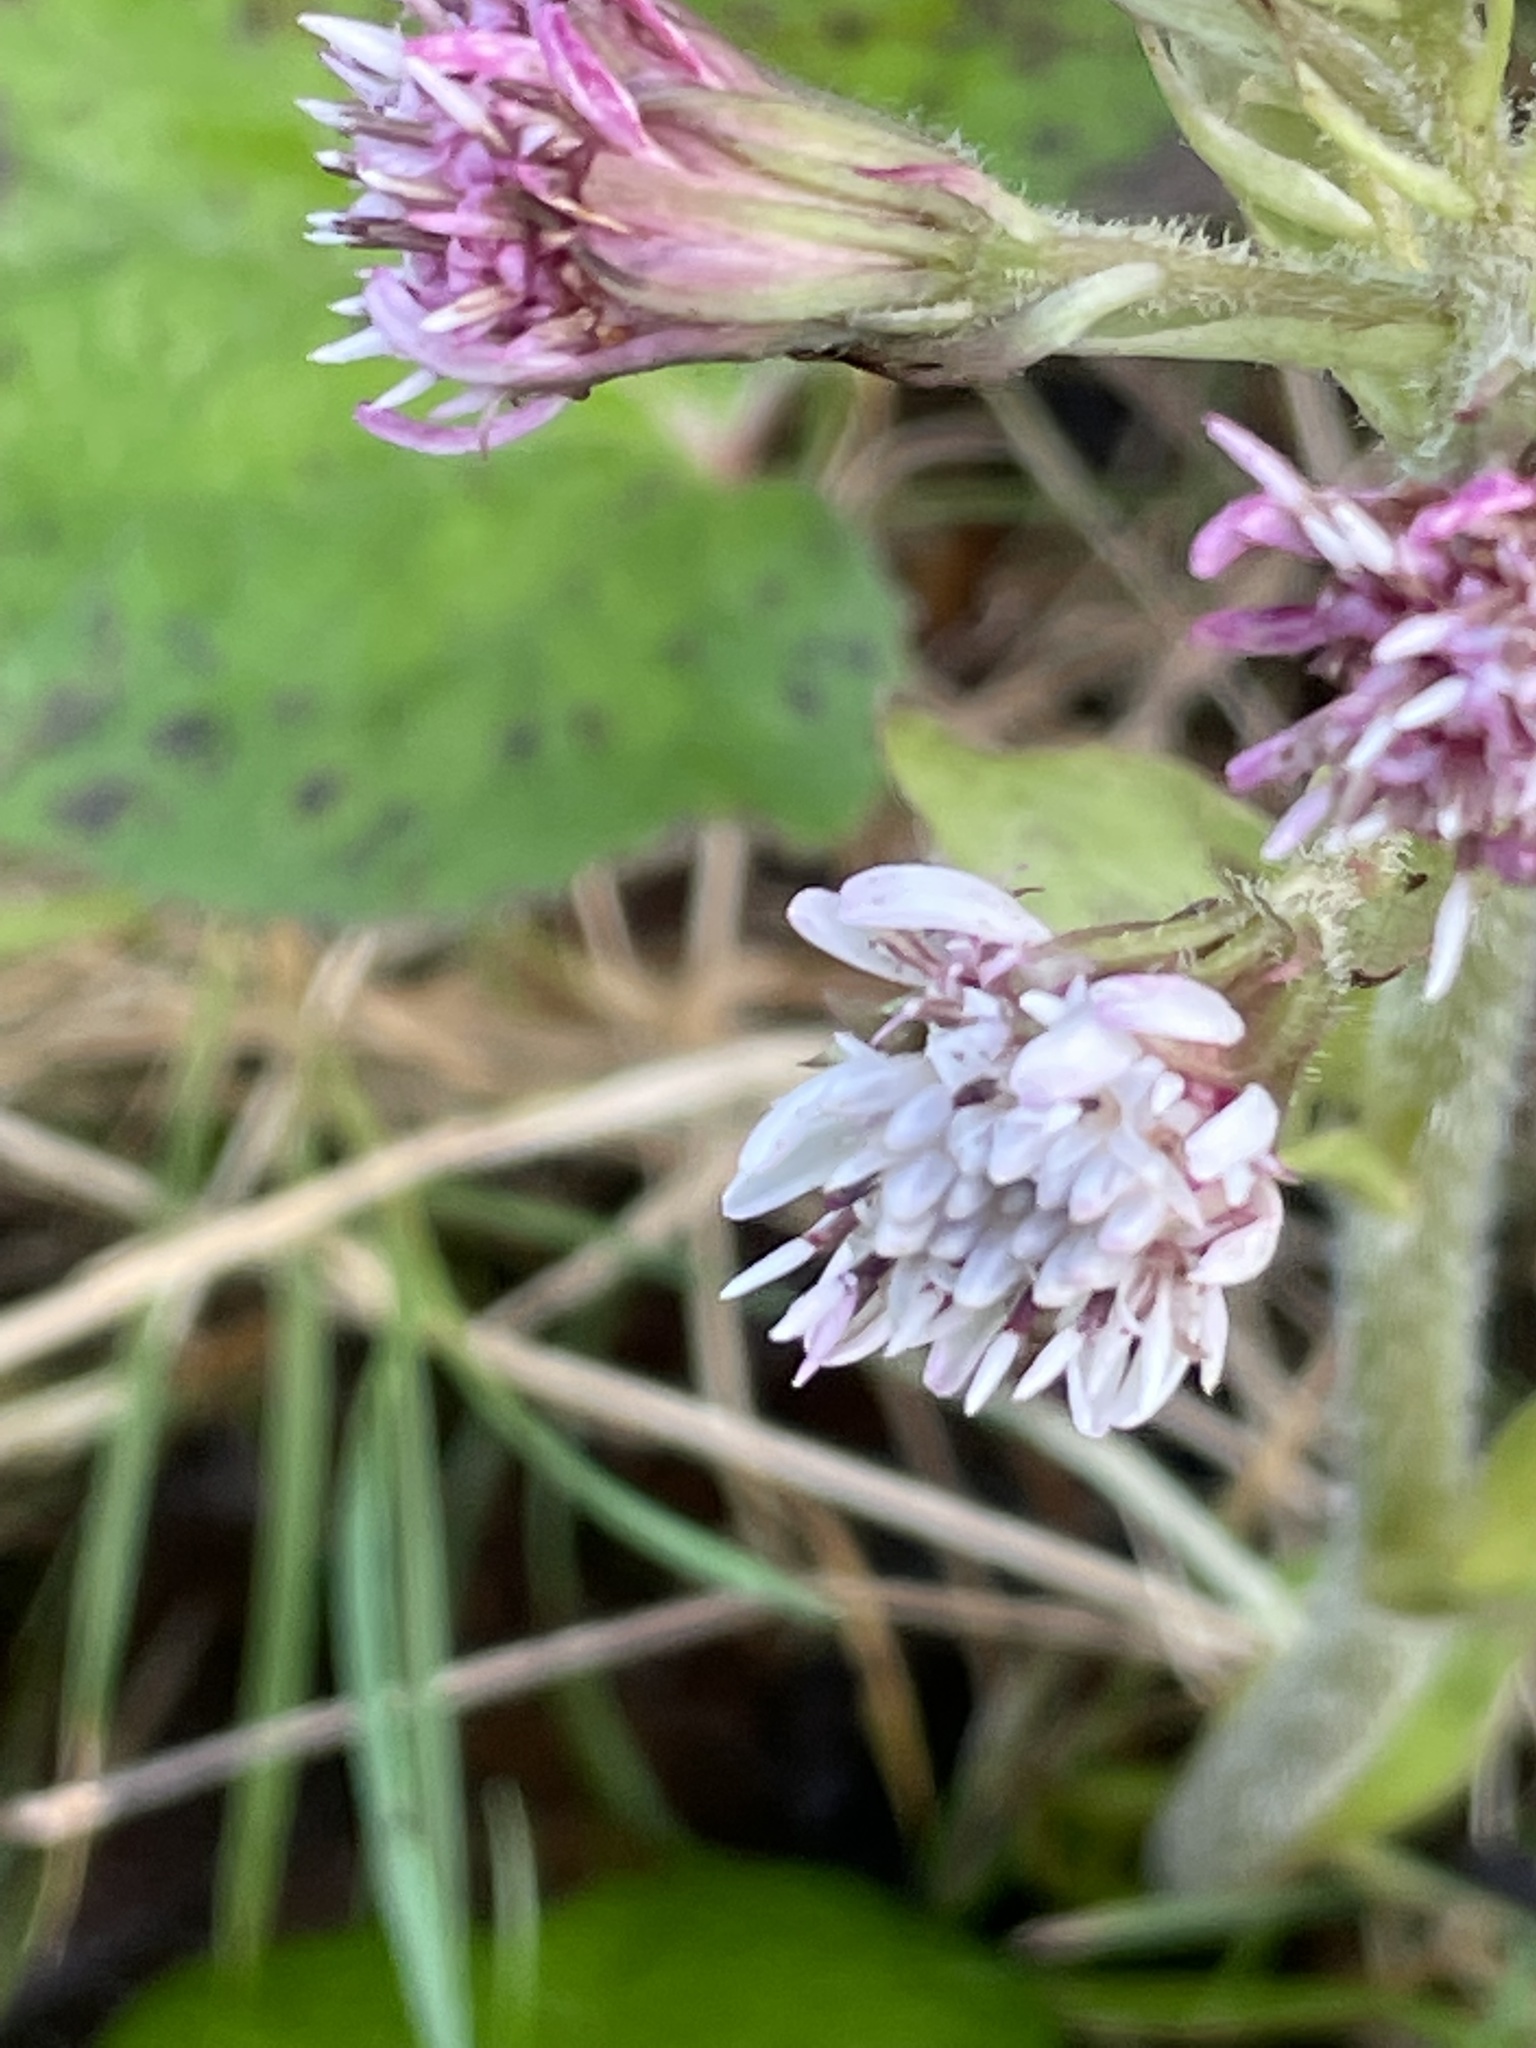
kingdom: Plantae
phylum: Tracheophyta
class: Magnoliopsida
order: Asterales
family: Asteraceae
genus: Petasites
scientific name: Petasites pyrenaicus
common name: Winter heliotrope
